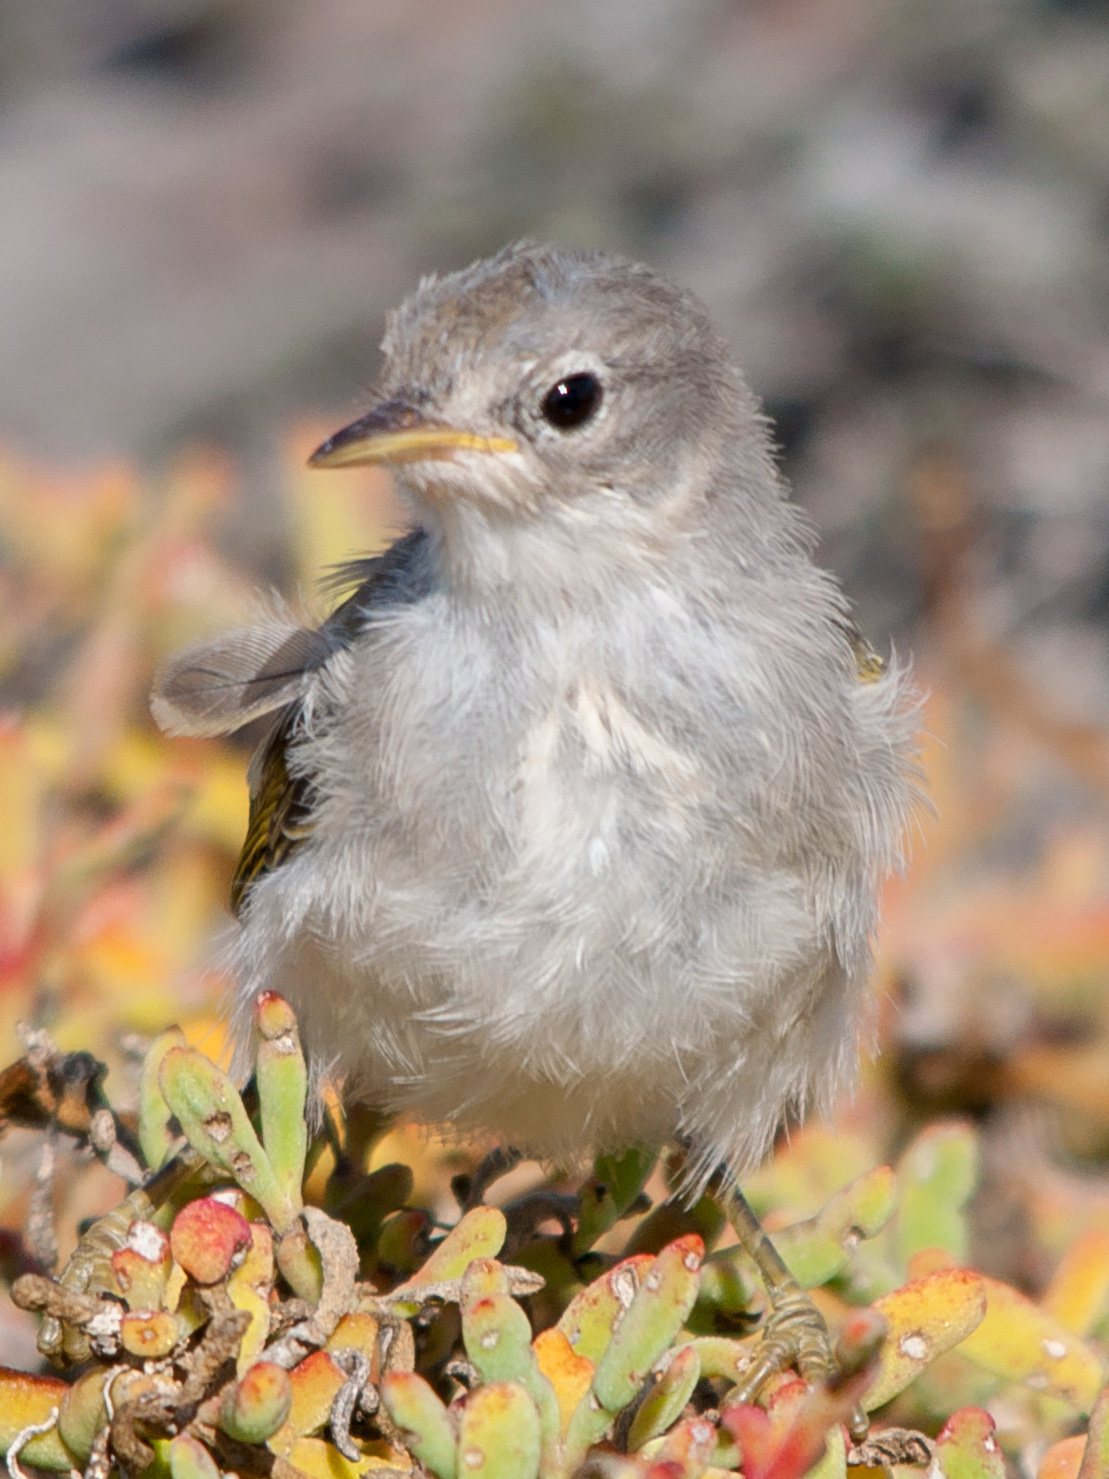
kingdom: Animalia
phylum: Chordata
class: Aves
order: Passeriformes
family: Parulidae
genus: Setophaga
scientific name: Setophaga petechia
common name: Yellow warbler
